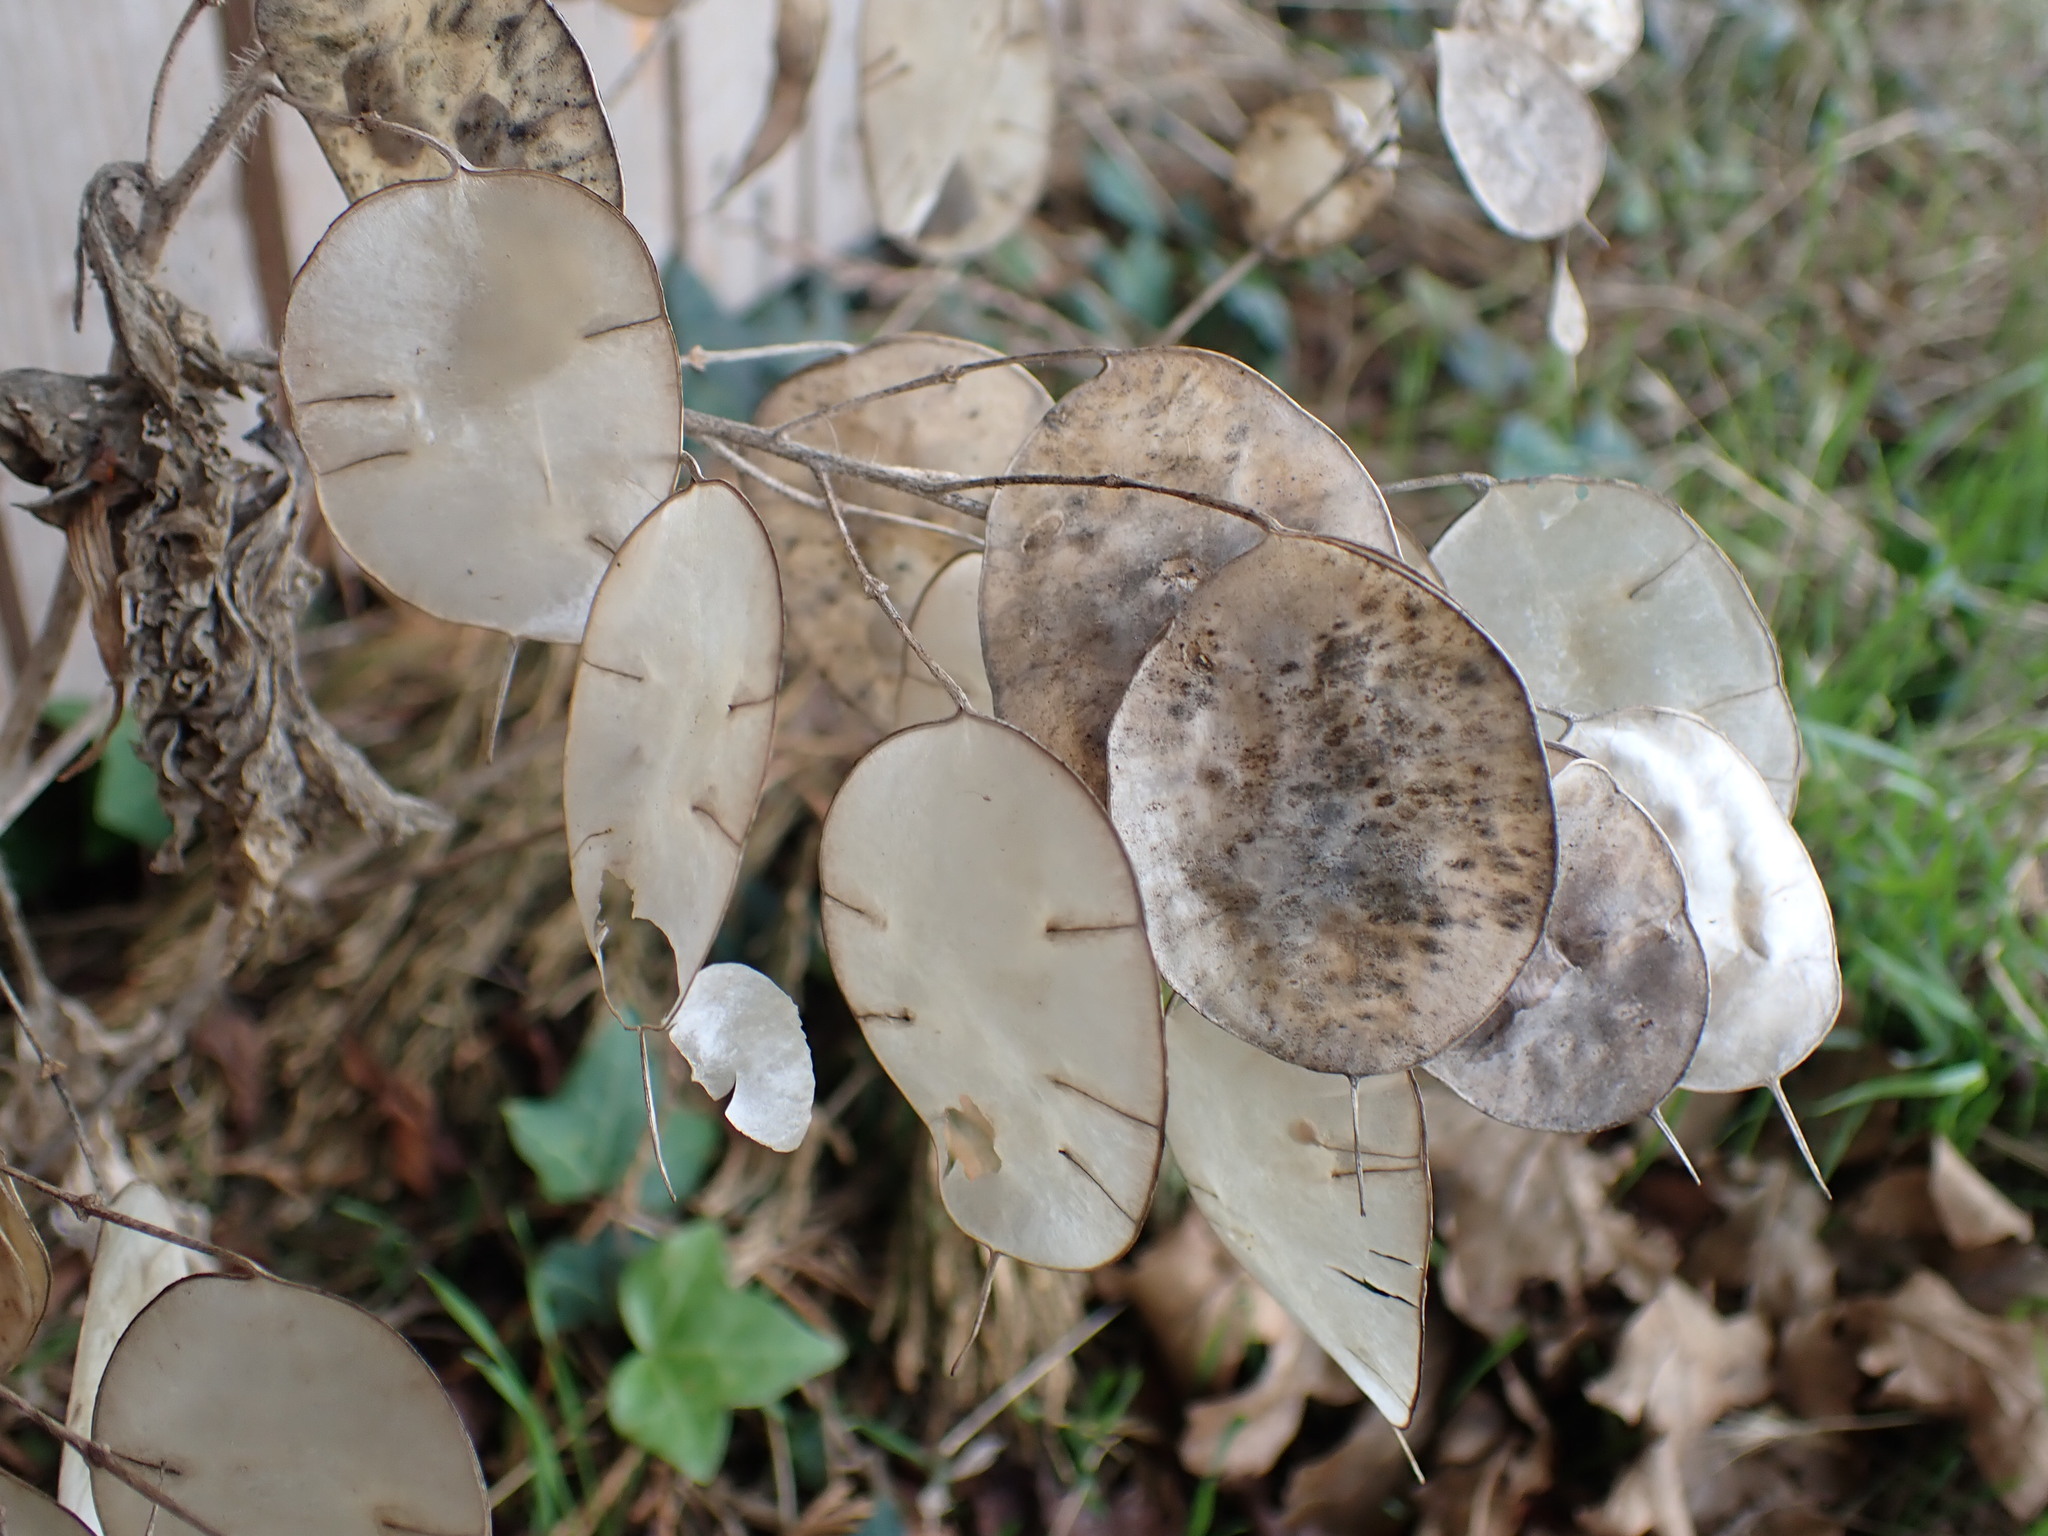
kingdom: Plantae
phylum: Tracheophyta
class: Magnoliopsida
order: Brassicales
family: Brassicaceae
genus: Lunaria
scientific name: Lunaria annua
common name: Honesty
